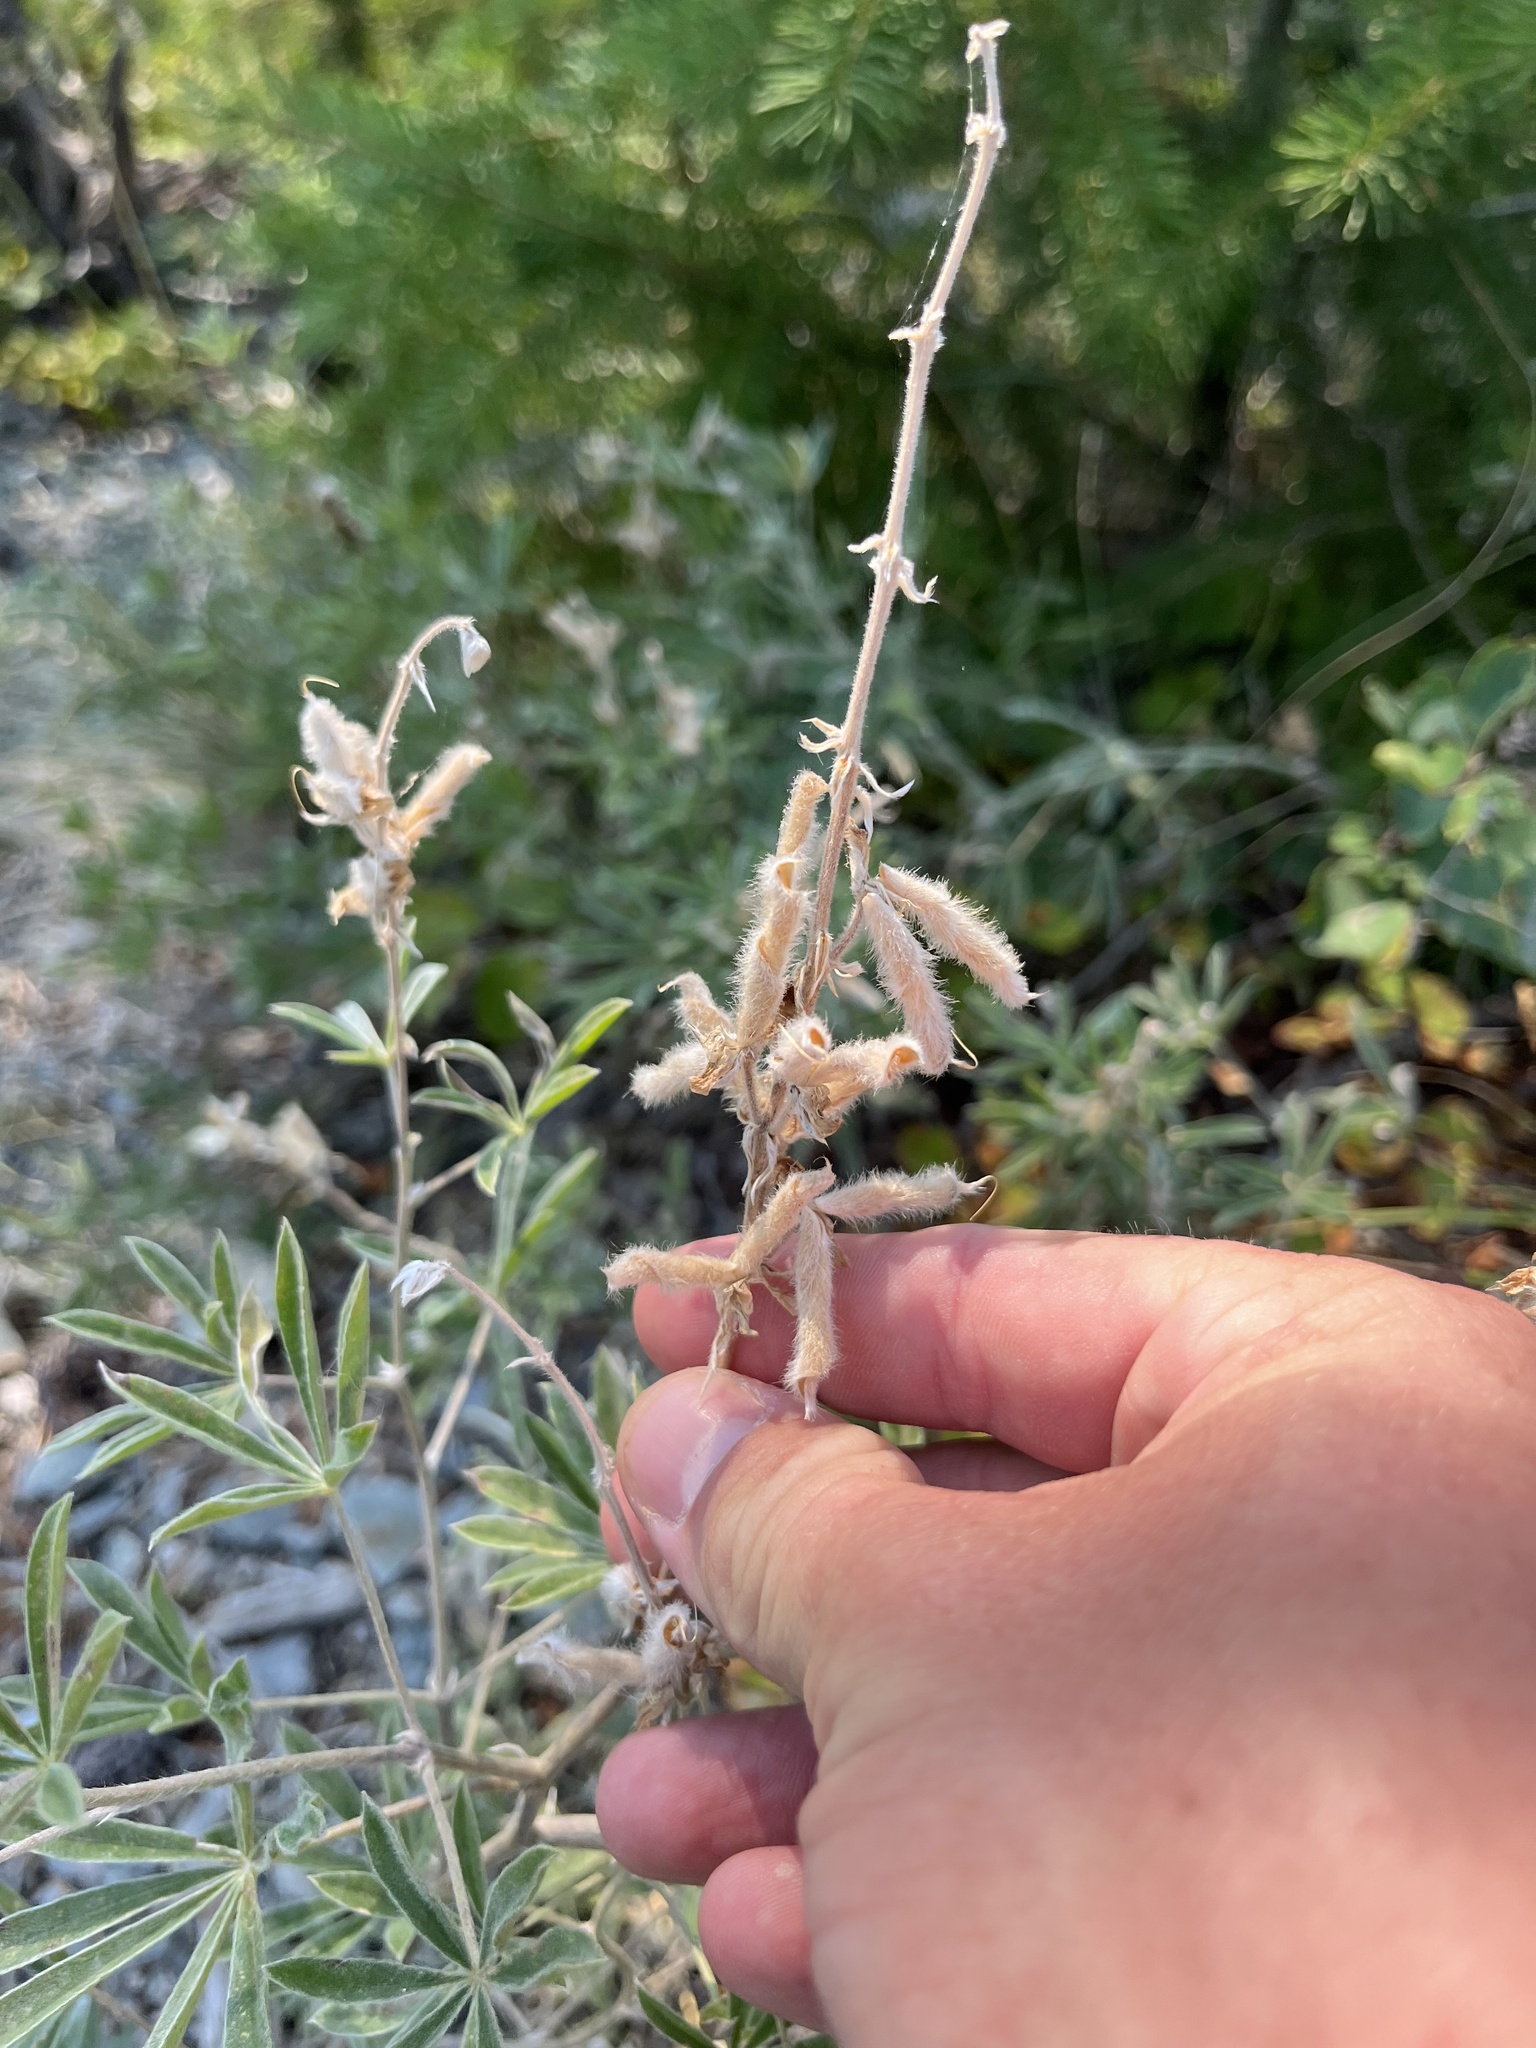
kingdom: Plantae
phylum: Tracheophyta
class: Magnoliopsida
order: Fabales
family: Fabaceae
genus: Lupinus
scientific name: Lupinus argenteus
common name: Silvery lupine
